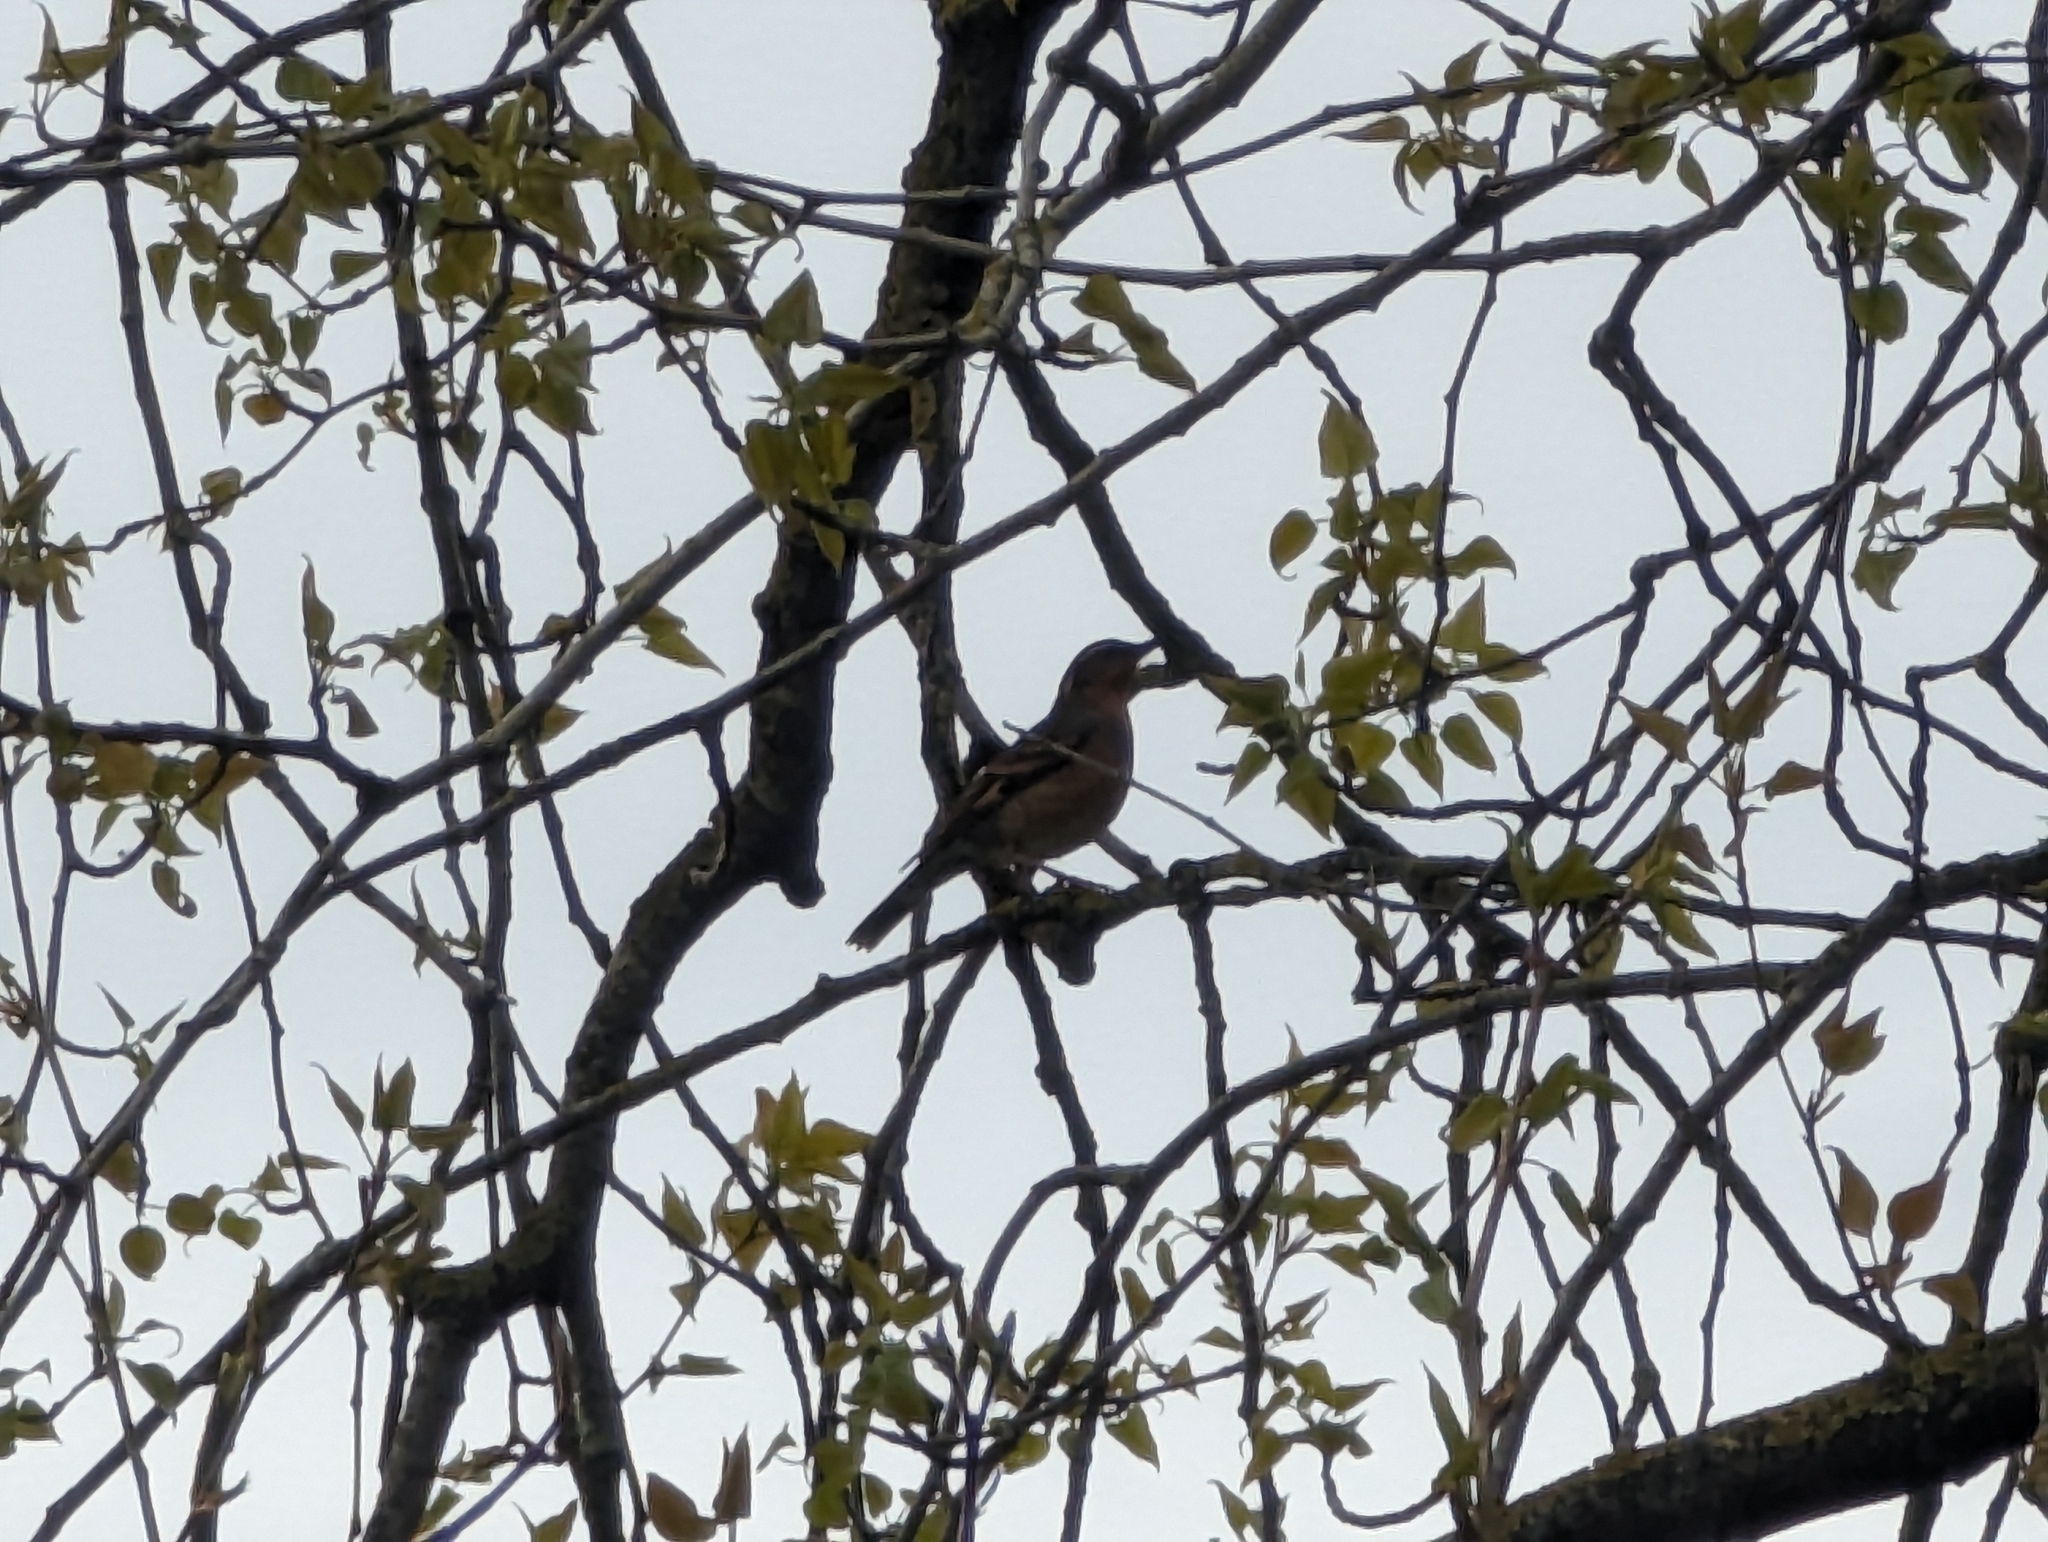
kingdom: Animalia
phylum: Chordata
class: Aves
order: Passeriformes
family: Turdidae
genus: Ixoreus
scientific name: Ixoreus naevius
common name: Varied thrush
